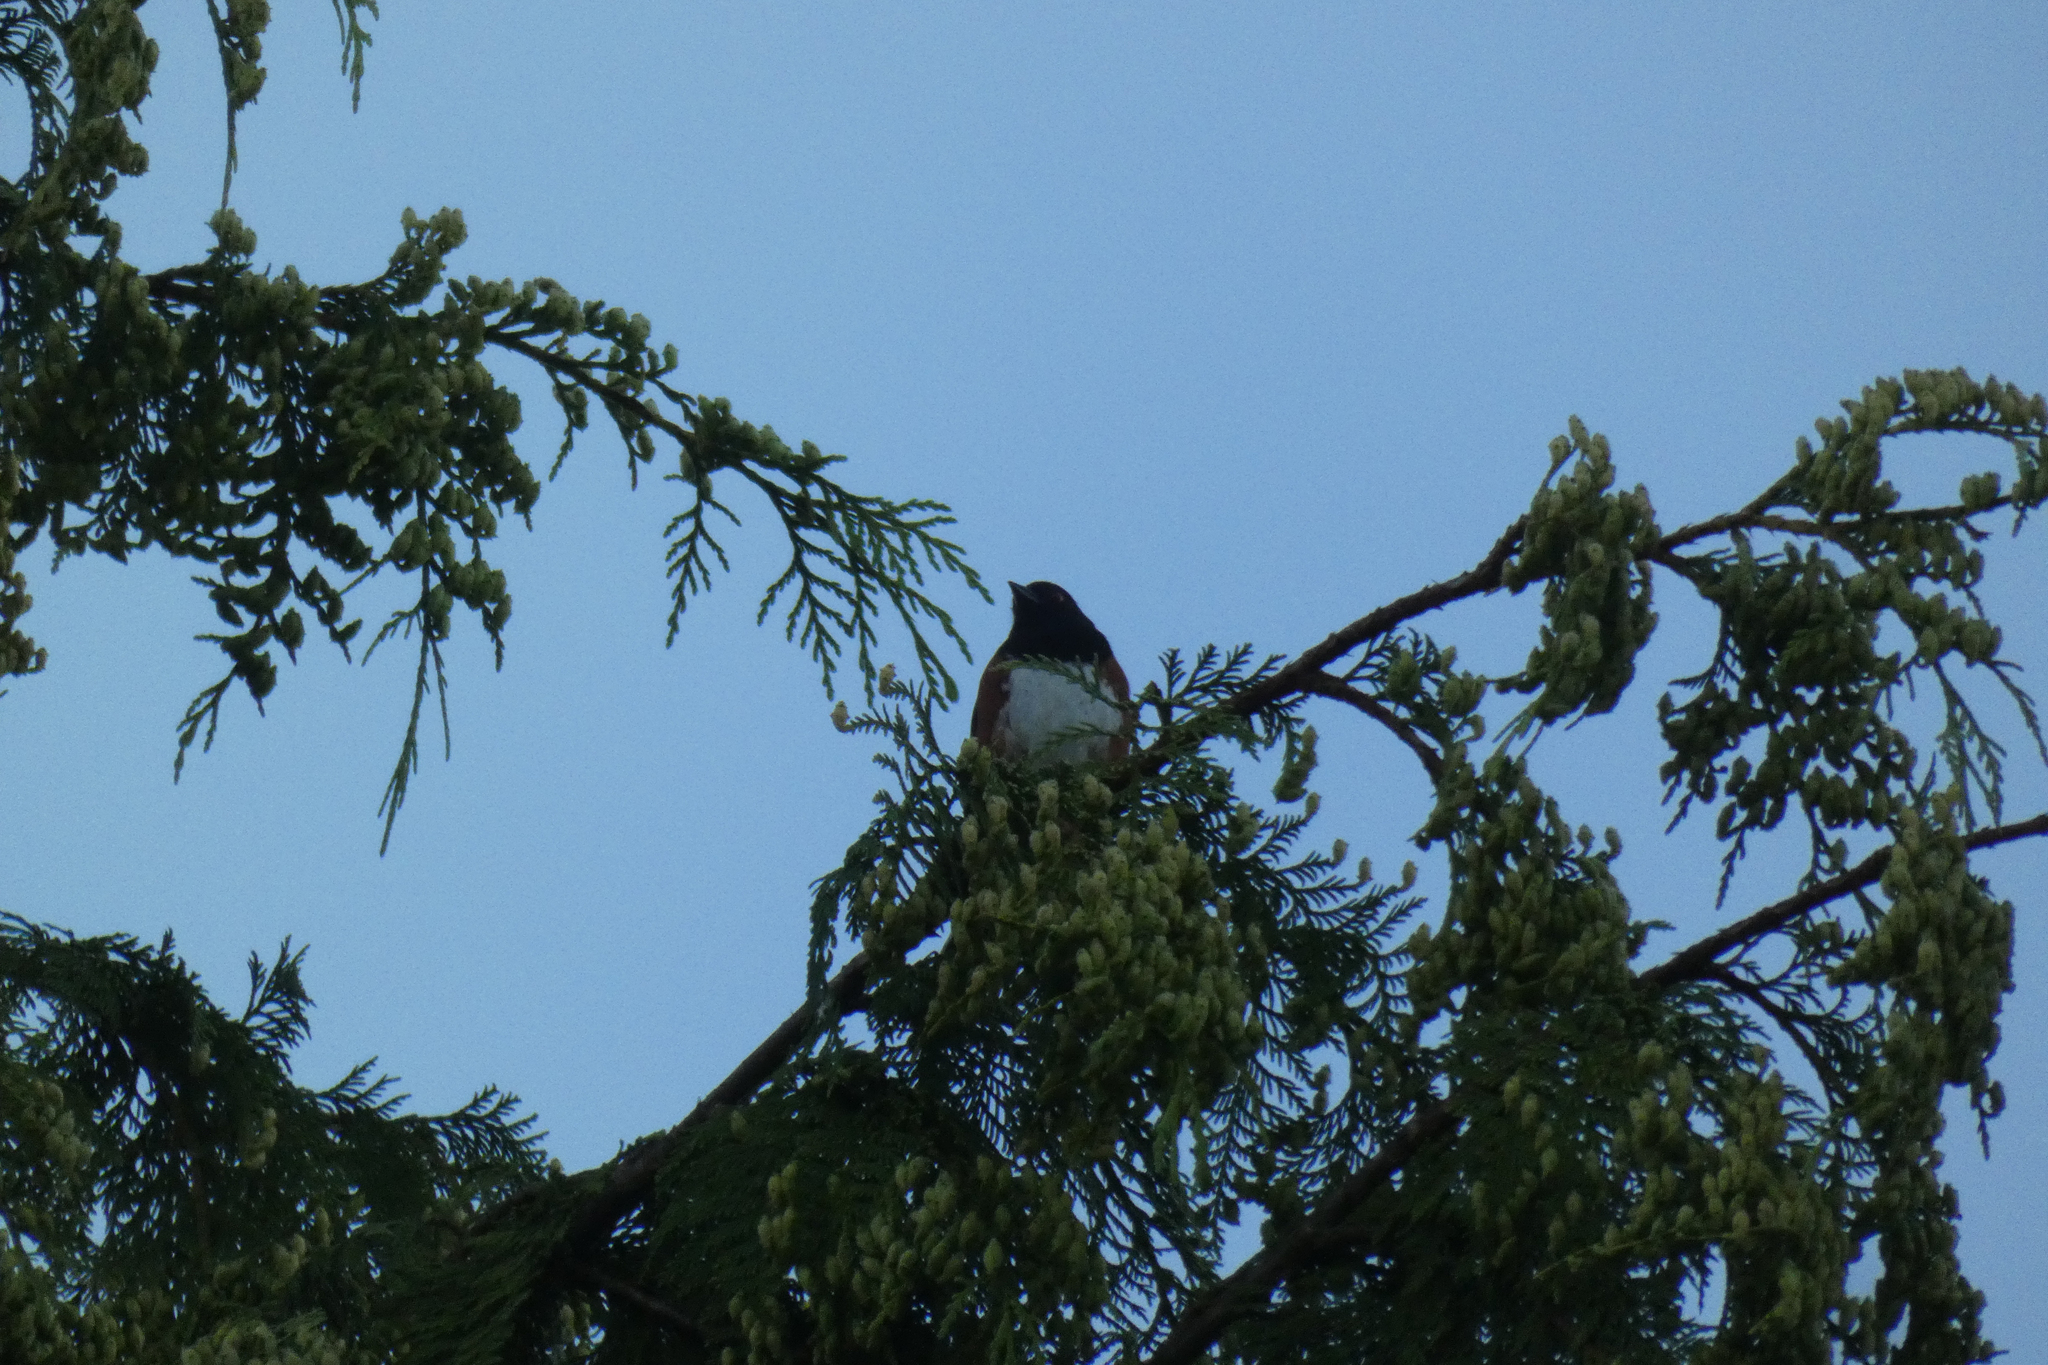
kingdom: Animalia
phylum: Chordata
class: Aves
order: Passeriformes
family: Passerellidae
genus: Pipilo
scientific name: Pipilo maculatus
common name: Spotted towhee
